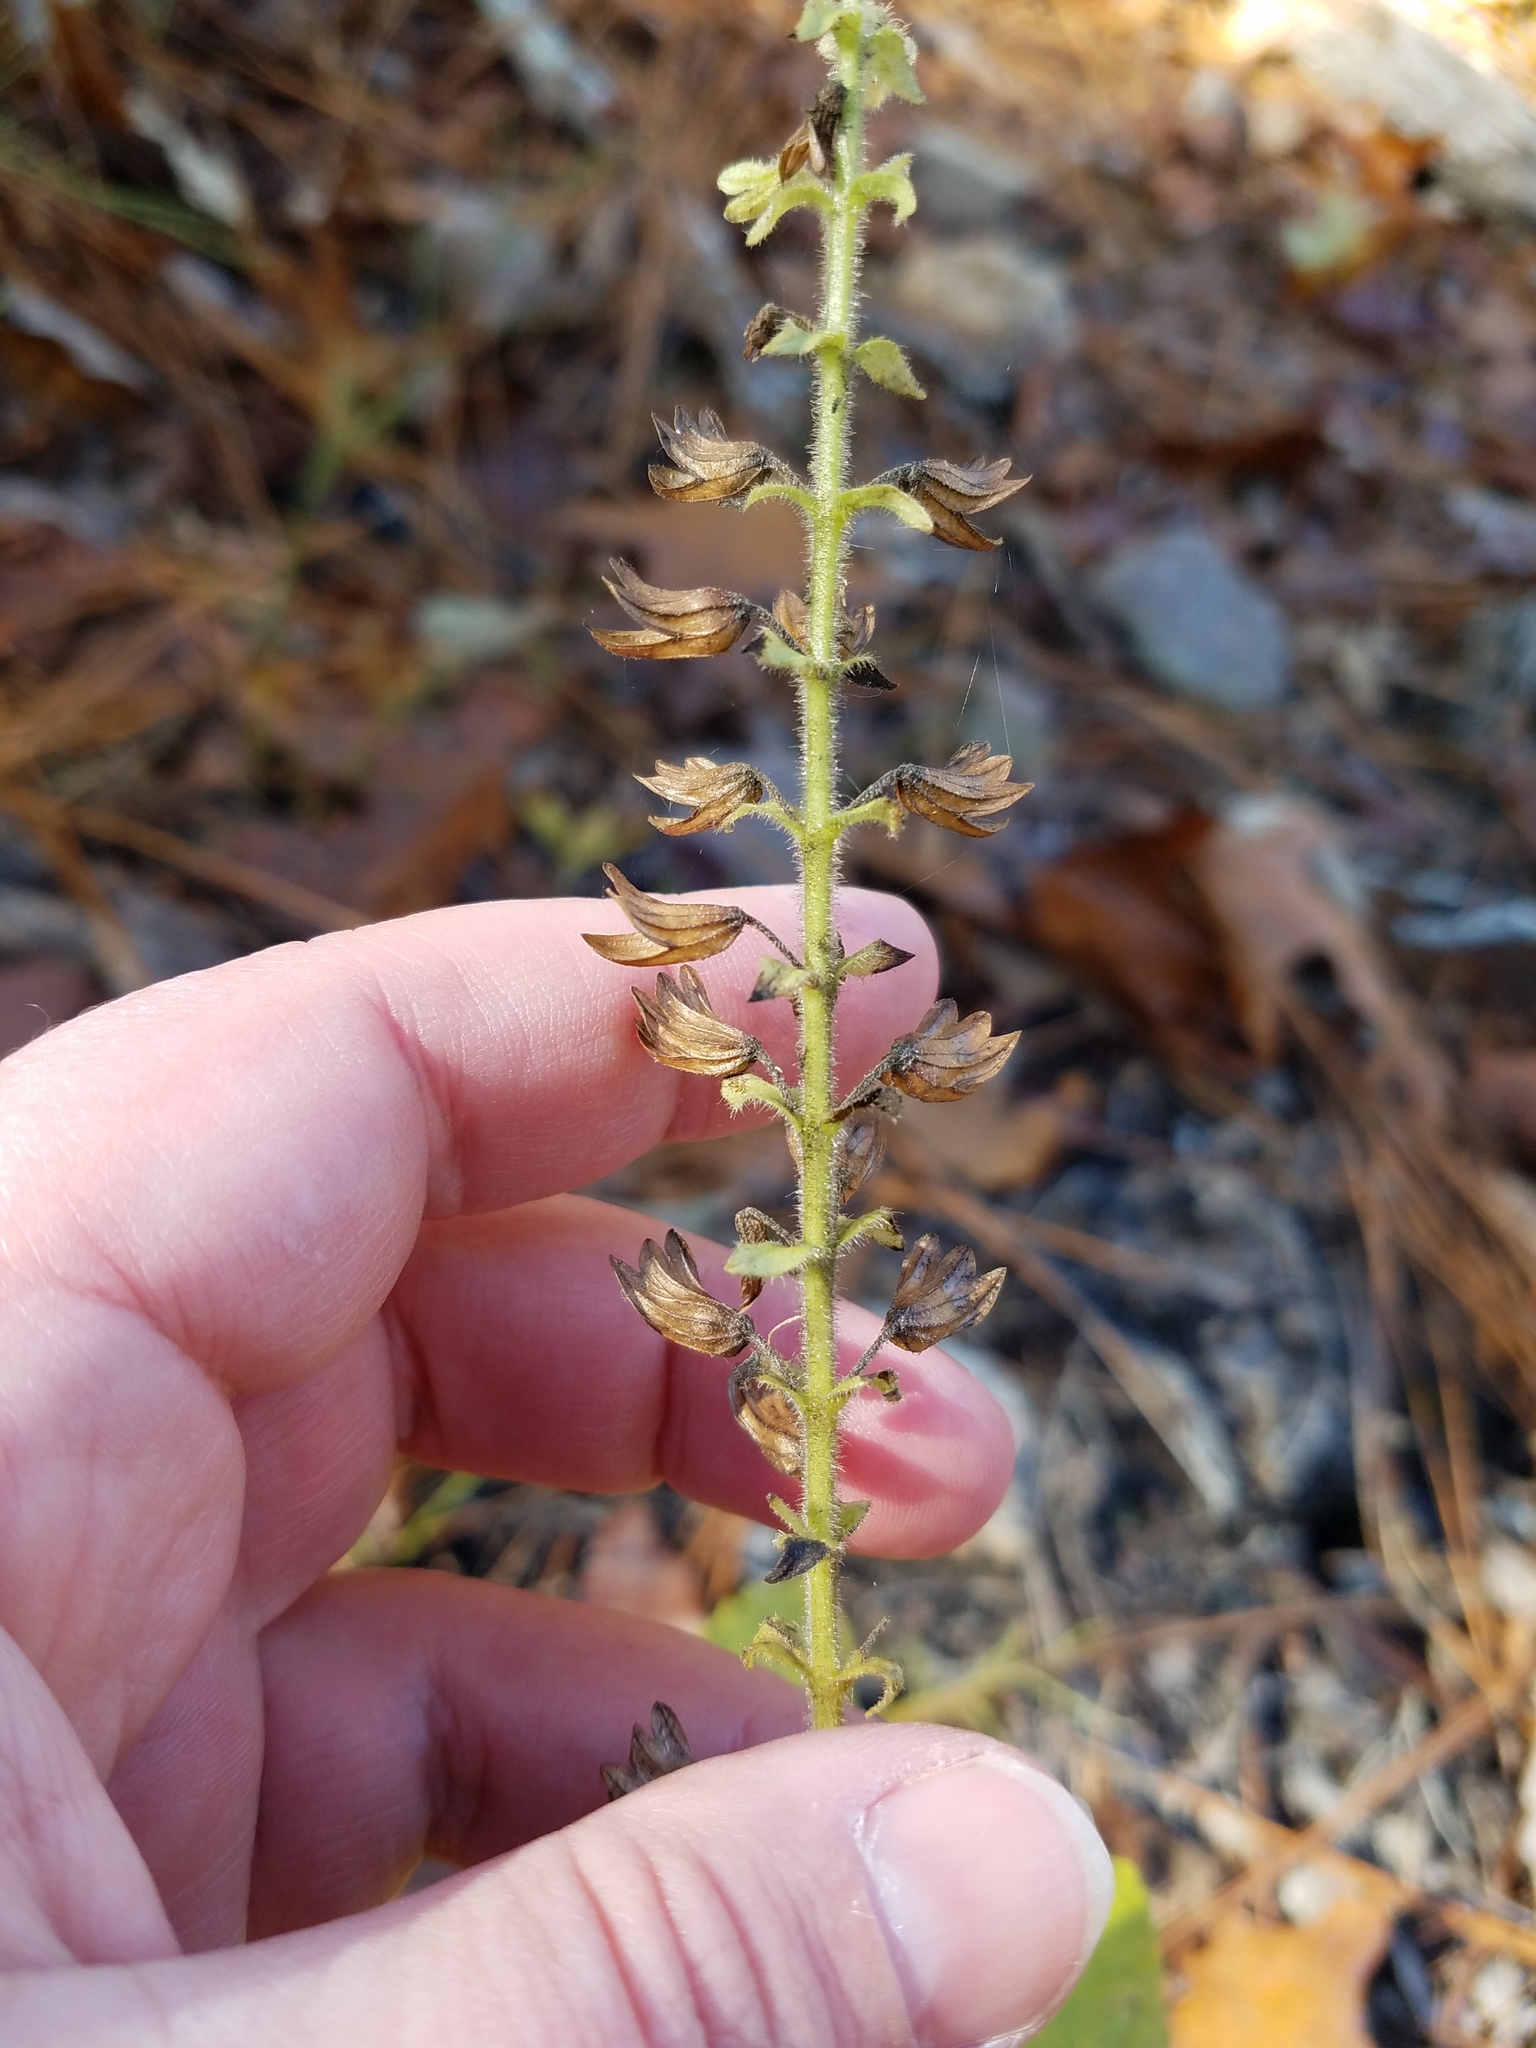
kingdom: Plantae
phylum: Tracheophyta
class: Magnoliopsida
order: Lamiales
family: Lamiaceae
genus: Collinsonia
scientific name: Collinsonia anisata
